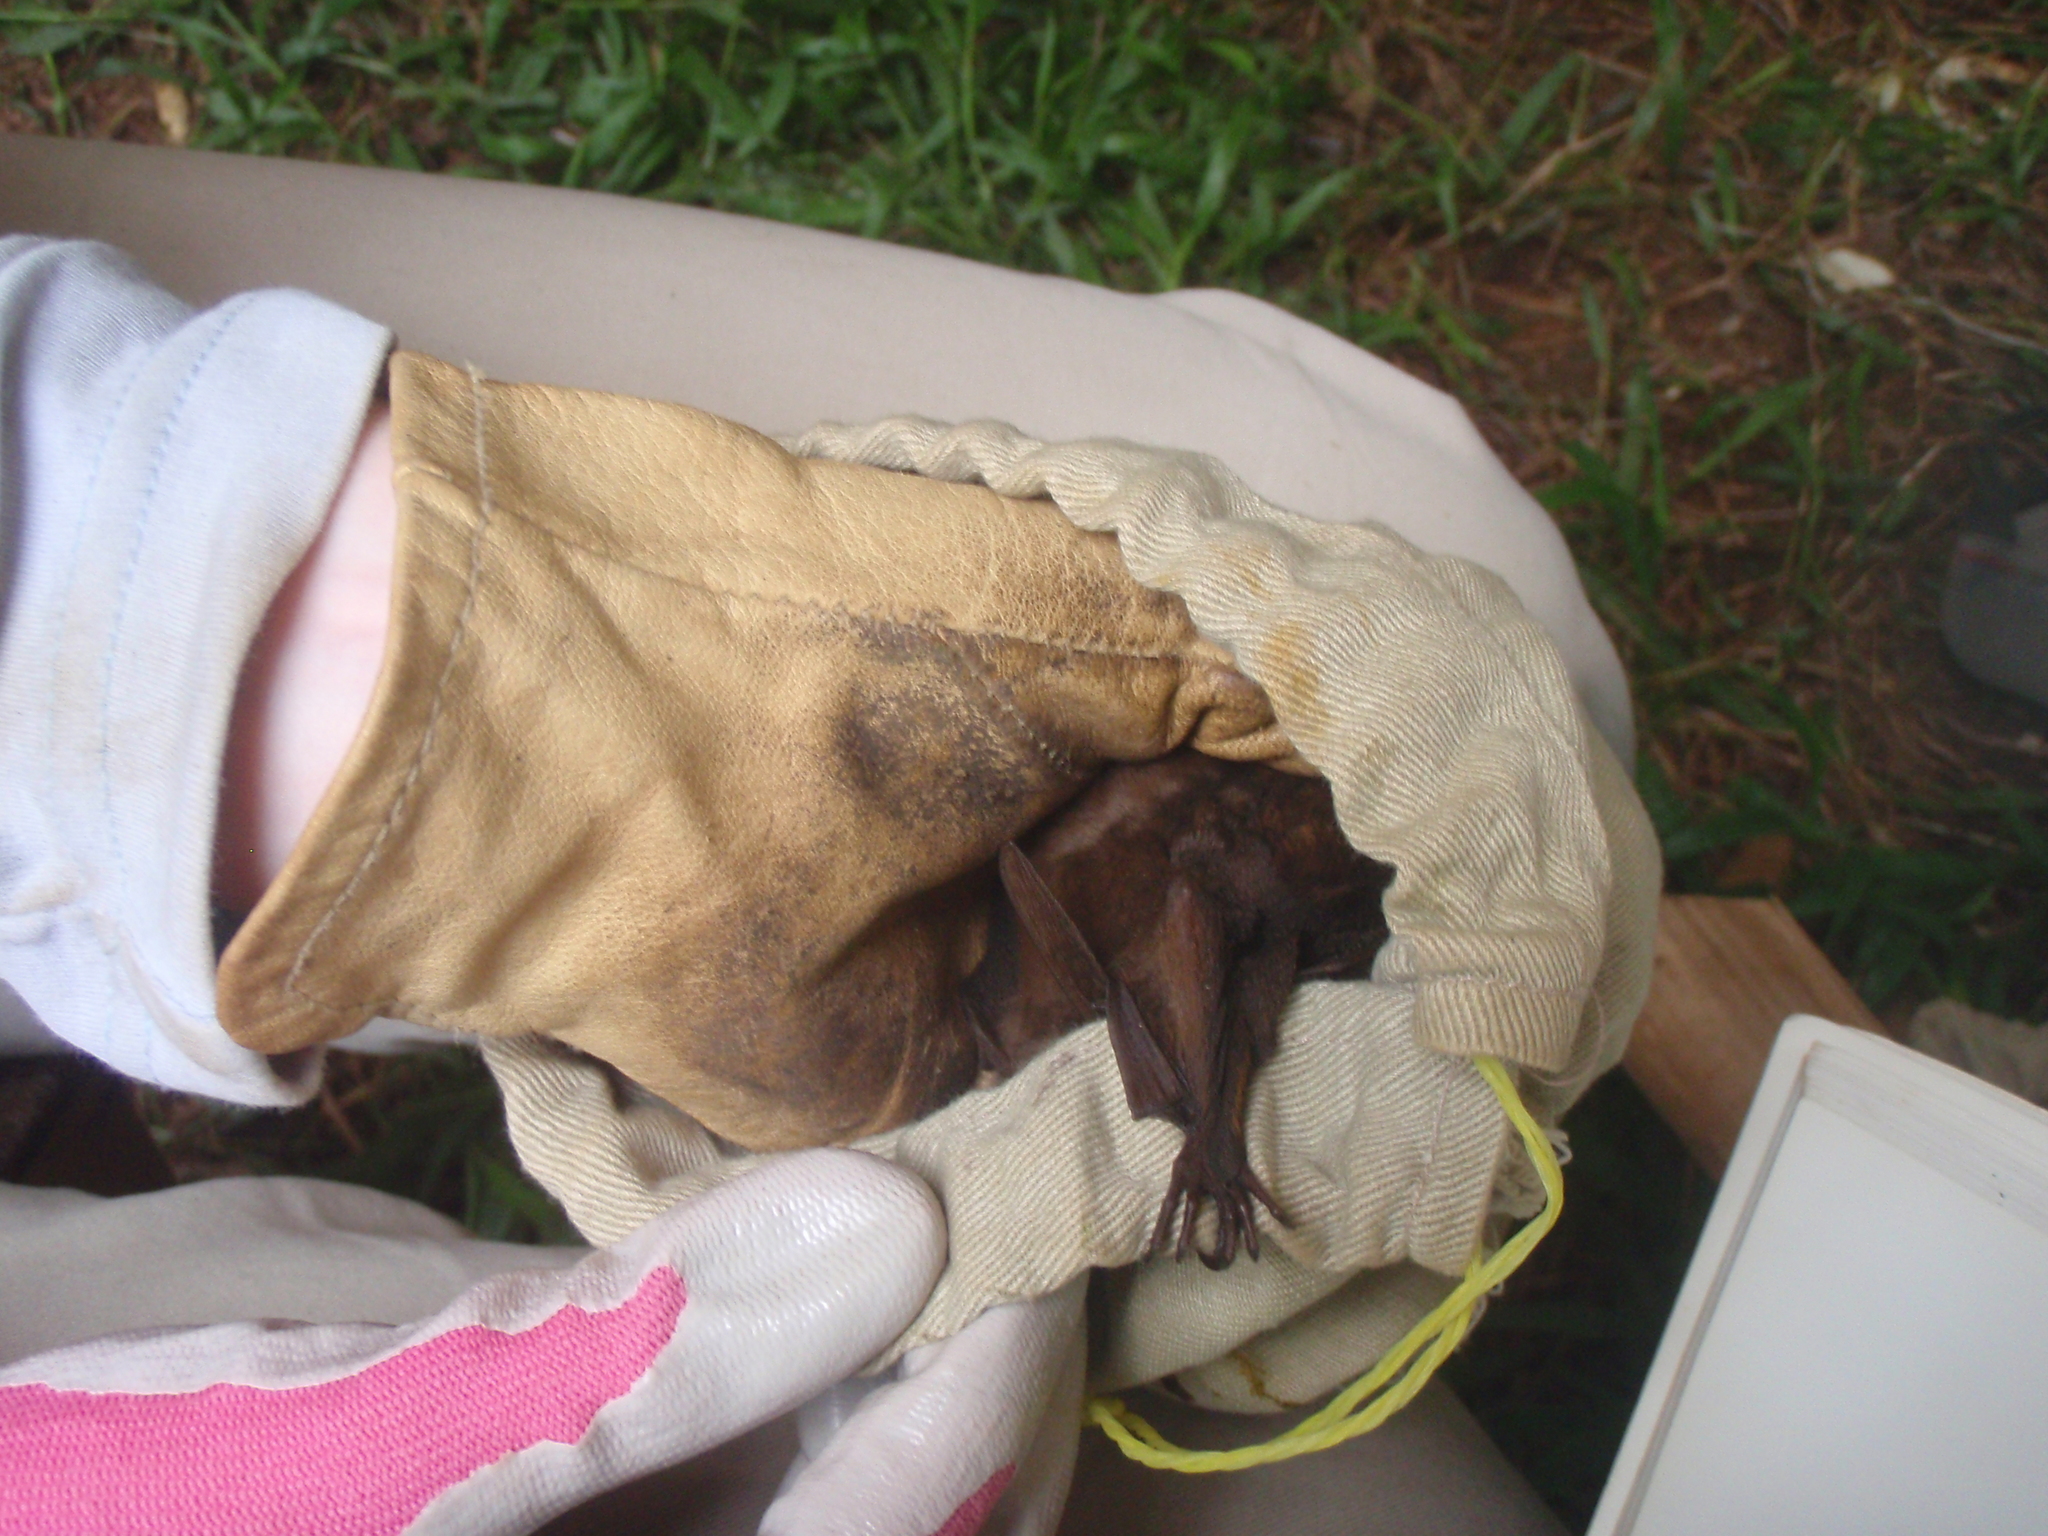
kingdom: Animalia
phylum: Chordata
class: Mammalia
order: Chiroptera
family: Pteropodidae
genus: Myonycteris
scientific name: Myonycteris relicta
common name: East african little collared fruit bat
